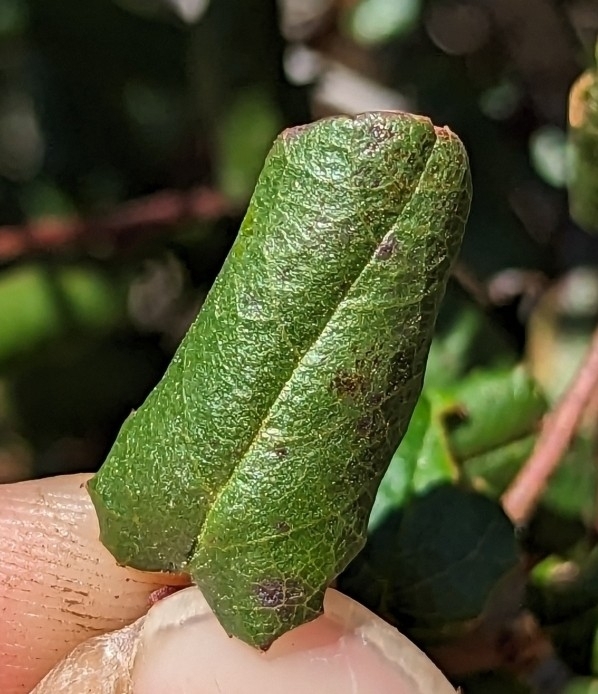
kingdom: Plantae
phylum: Tracheophyta
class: Magnoliopsida
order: Rosales
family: Rhamnaceae
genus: Endotropis
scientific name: Endotropis crocea
